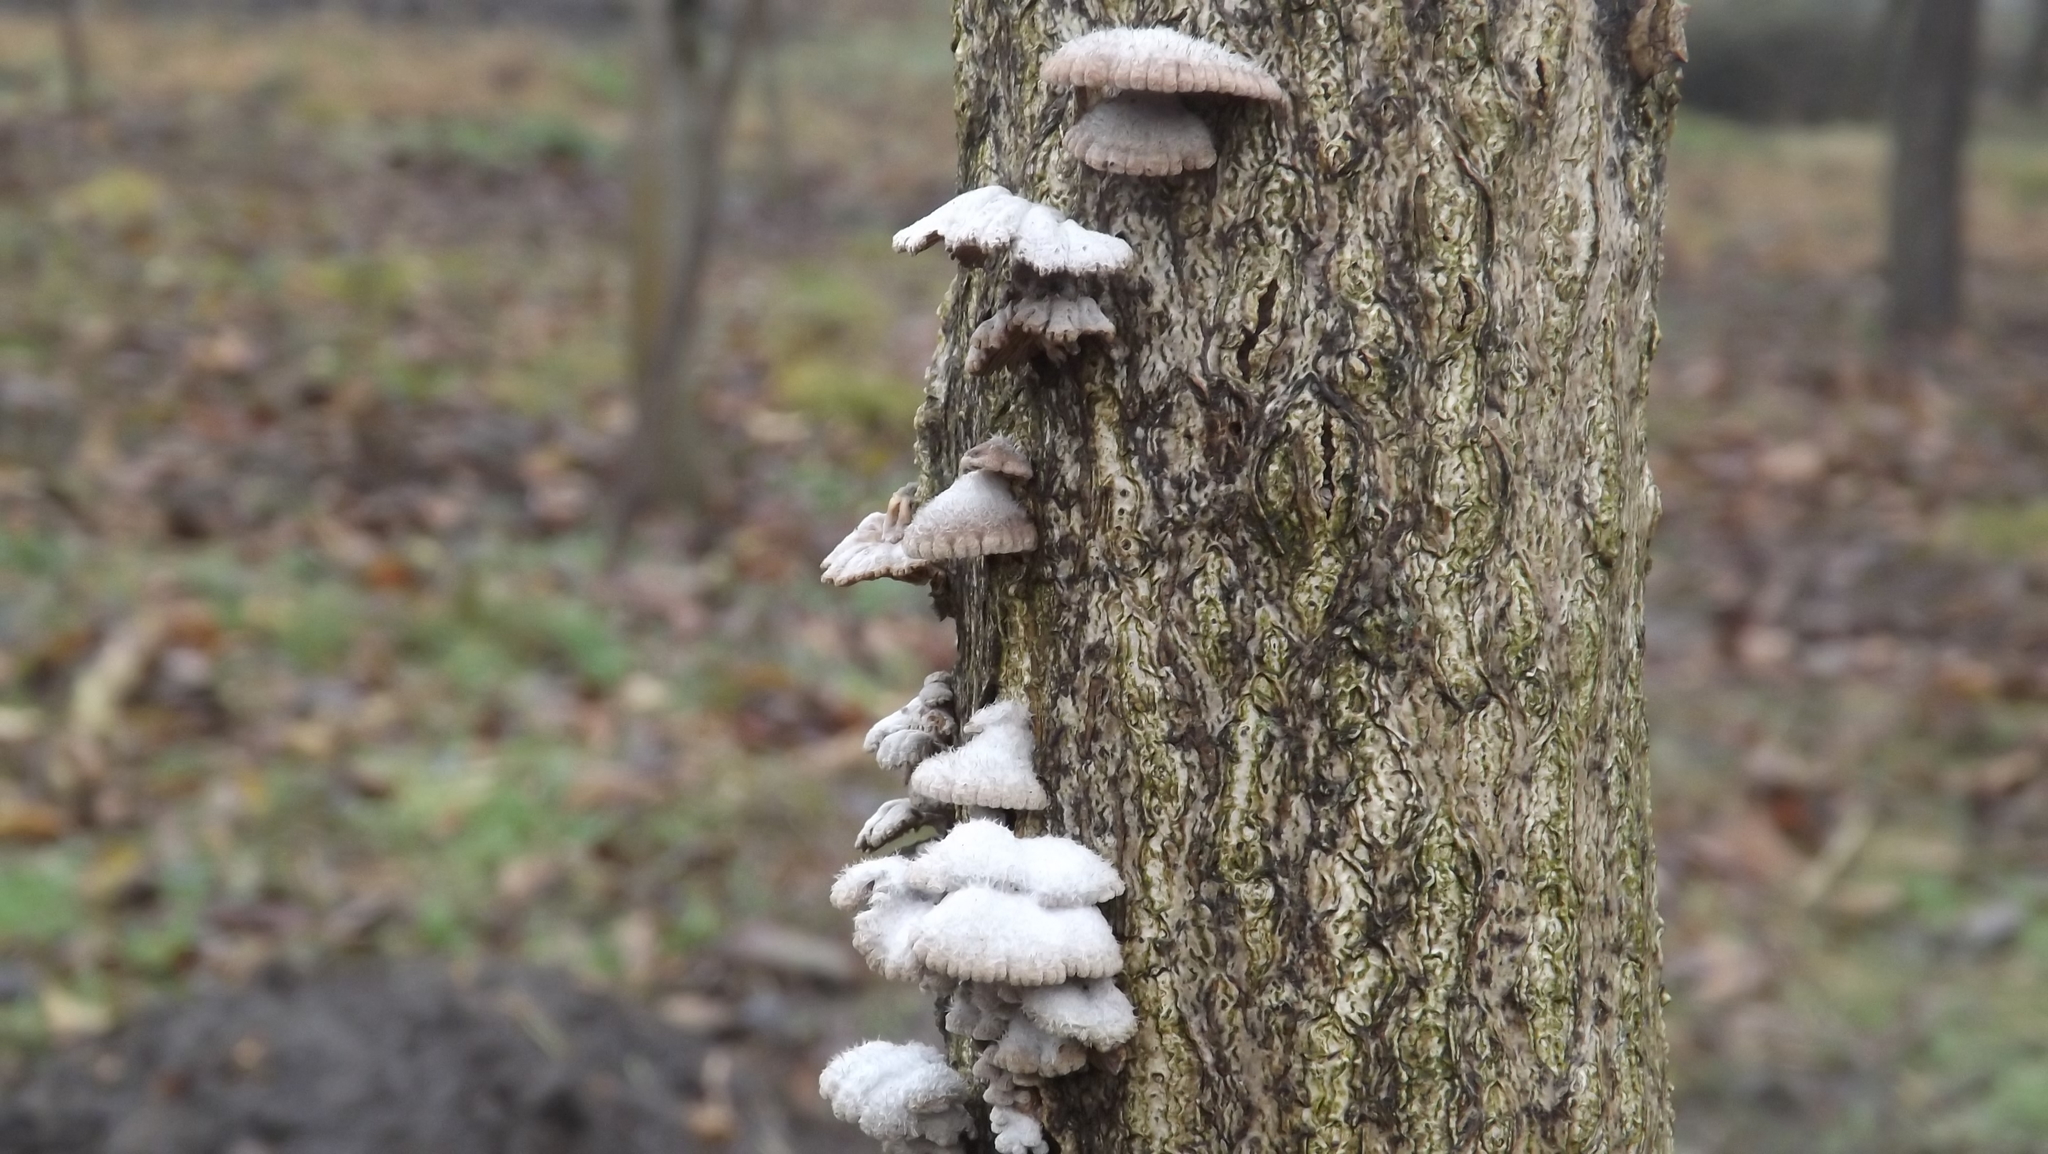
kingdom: Fungi
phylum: Basidiomycota
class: Agaricomycetes
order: Agaricales
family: Schizophyllaceae
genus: Schizophyllum
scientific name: Schizophyllum commune
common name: Common porecrust
